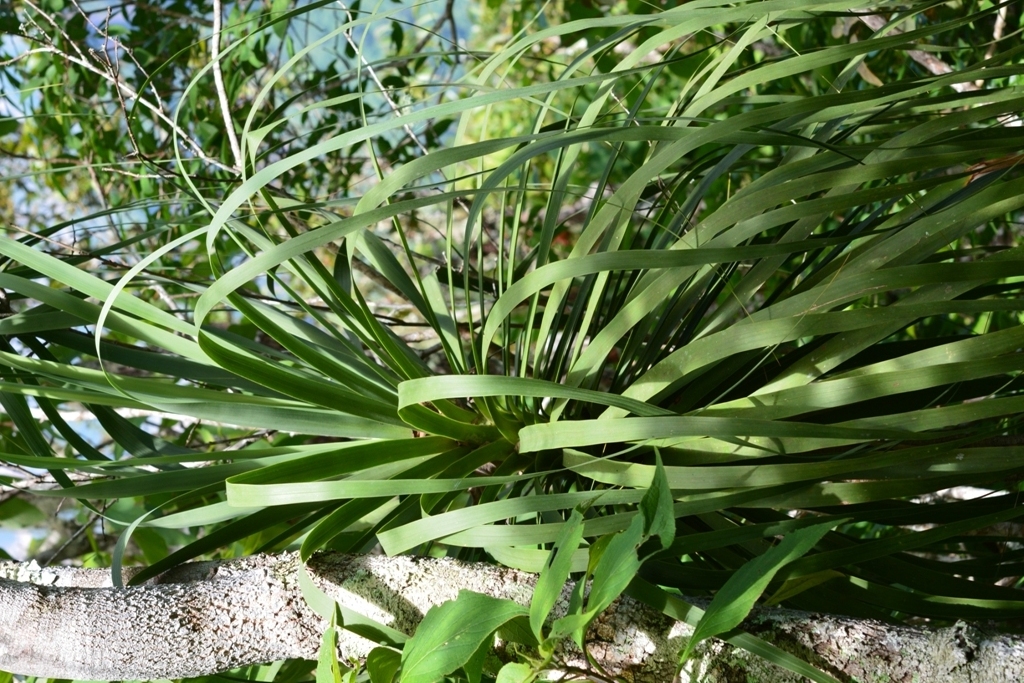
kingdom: Plantae
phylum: Tracheophyta
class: Liliopsida
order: Asparagales
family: Asparagaceae
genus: Beaucarnea
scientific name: Beaucarnea goldmanii
